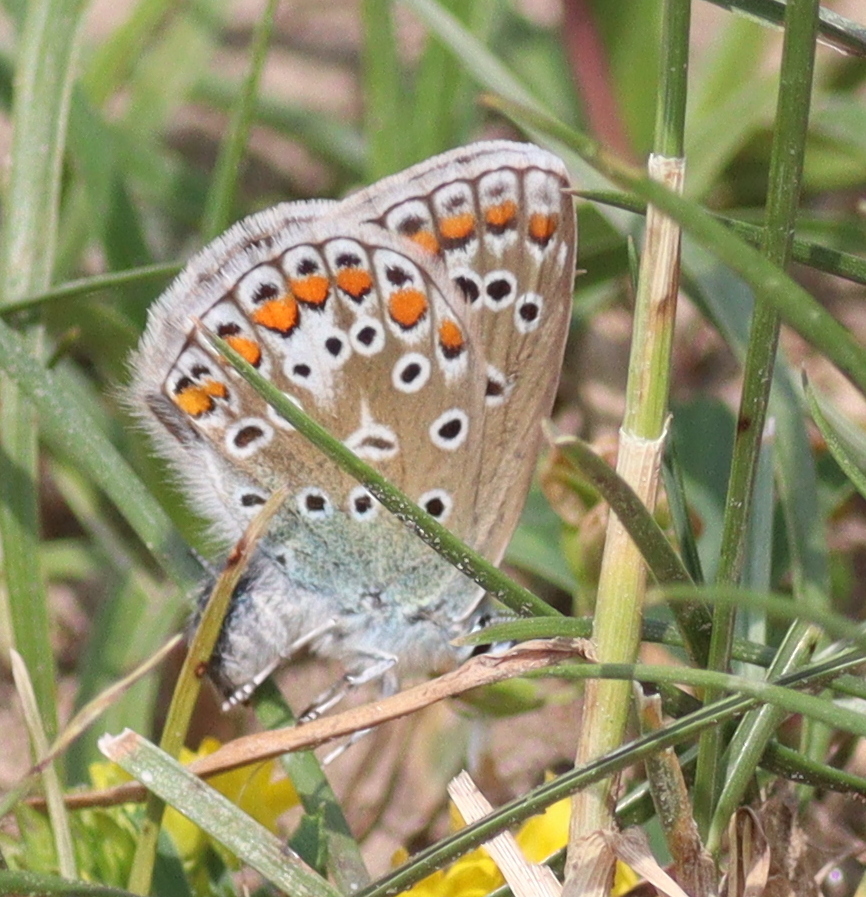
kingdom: Animalia
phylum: Arthropoda
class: Insecta
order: Lepidoptera
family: Lycaenidae
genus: Polyommatus
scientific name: Polyommatus icarus
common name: Common blue
